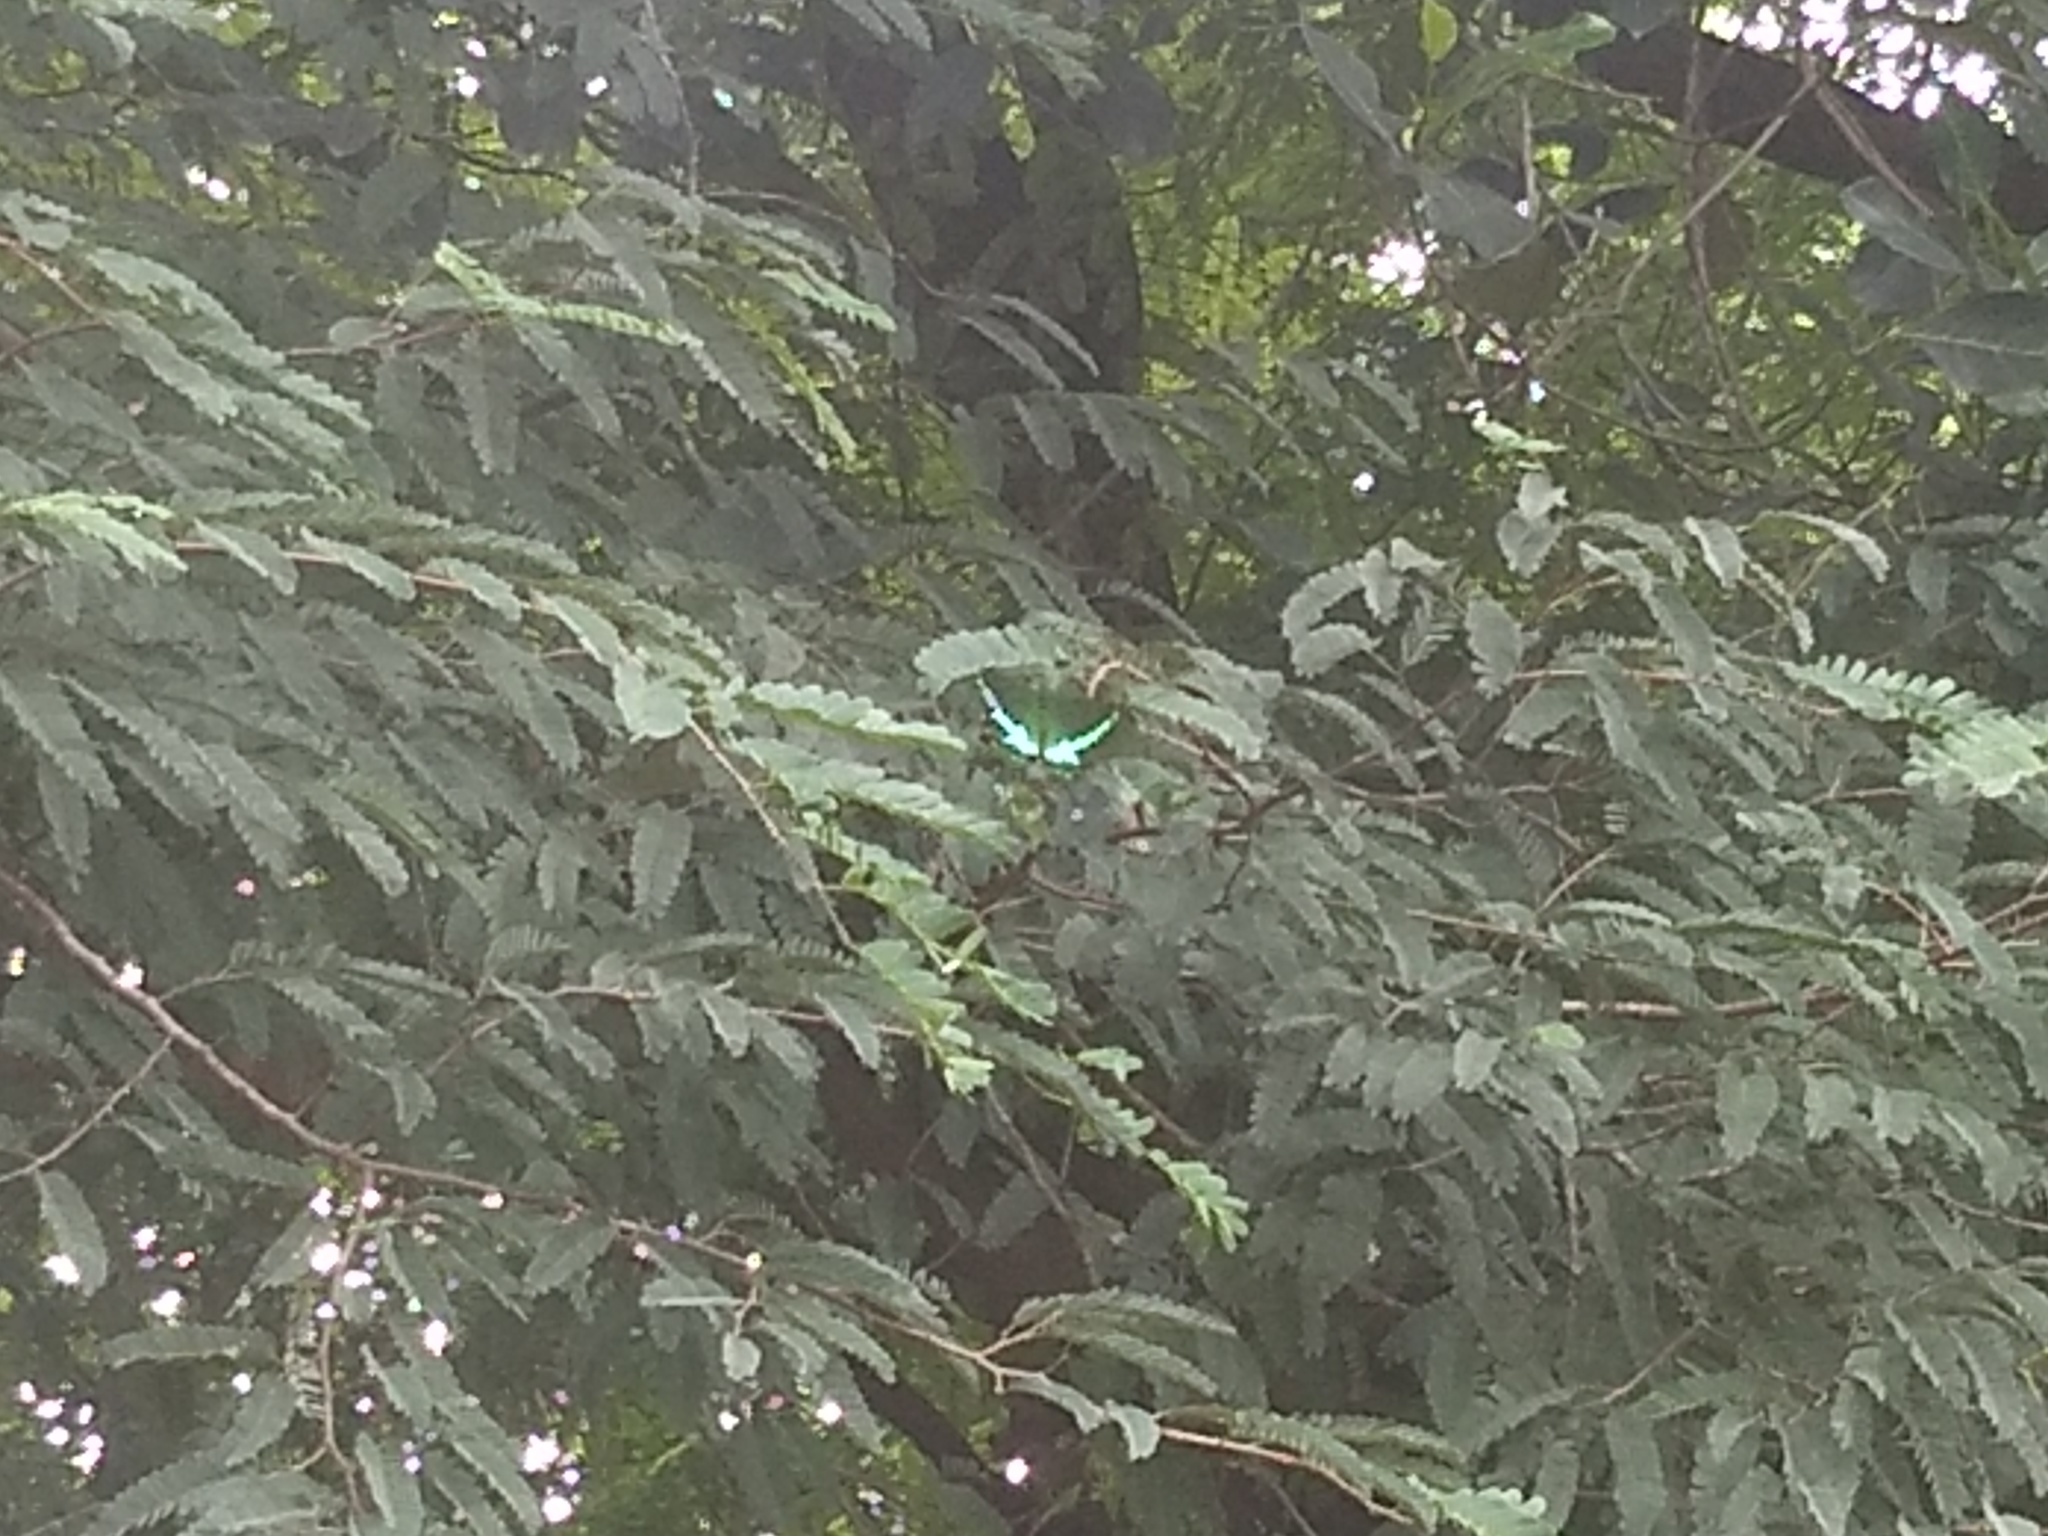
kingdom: Animalia
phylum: Arthropoda
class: Insecta
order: Lepidoptera
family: Papilionidae
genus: Papilio
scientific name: Papilio crino
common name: Common banded peacock
